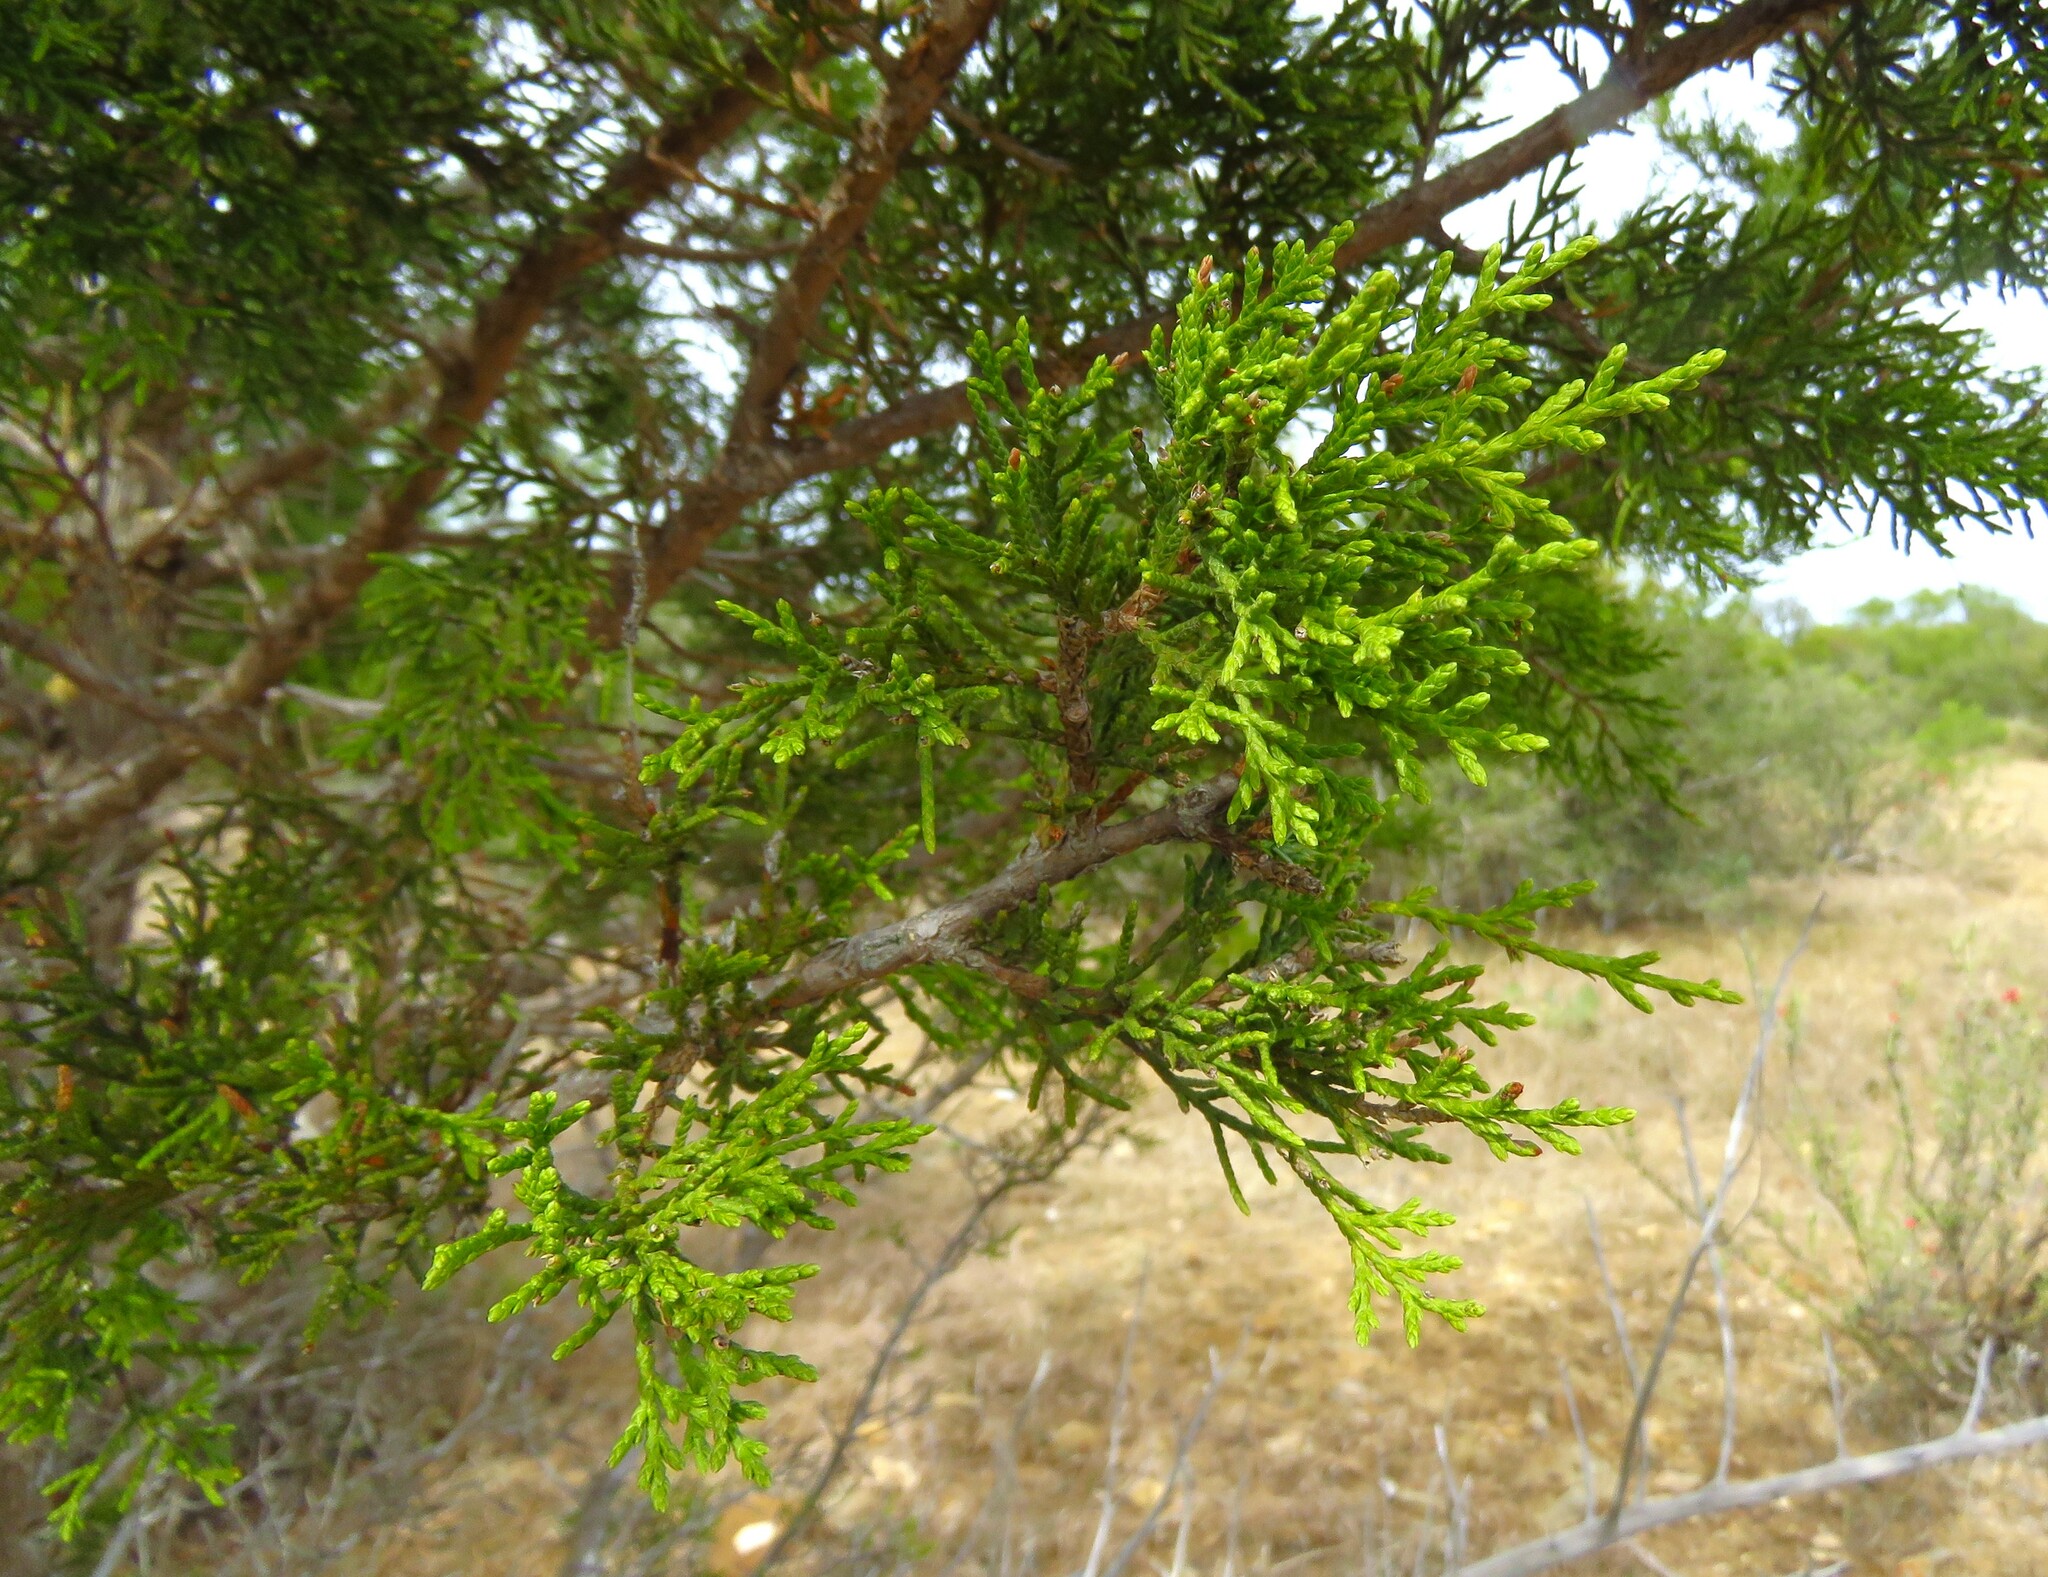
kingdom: Plantae
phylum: Tracheophyta
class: Pinopsida
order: Pinales
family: Cupressaceae
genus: Juniperus
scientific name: Juniperus ashei
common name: Mexican juniper
